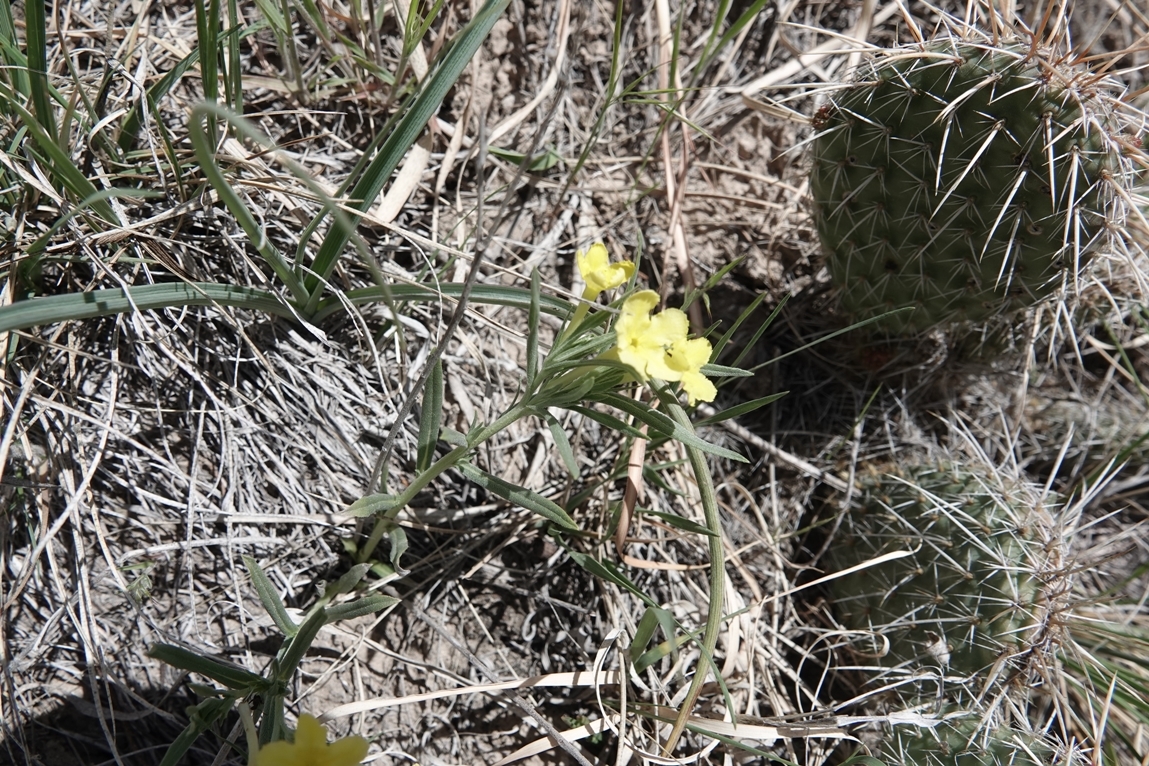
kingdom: Plantae
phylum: Tracheophyta
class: Magnoliopsida
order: Boraginales
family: Boraginaceae
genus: Lithospermum
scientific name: Lithospermum incisum
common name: Fringed gromwell
